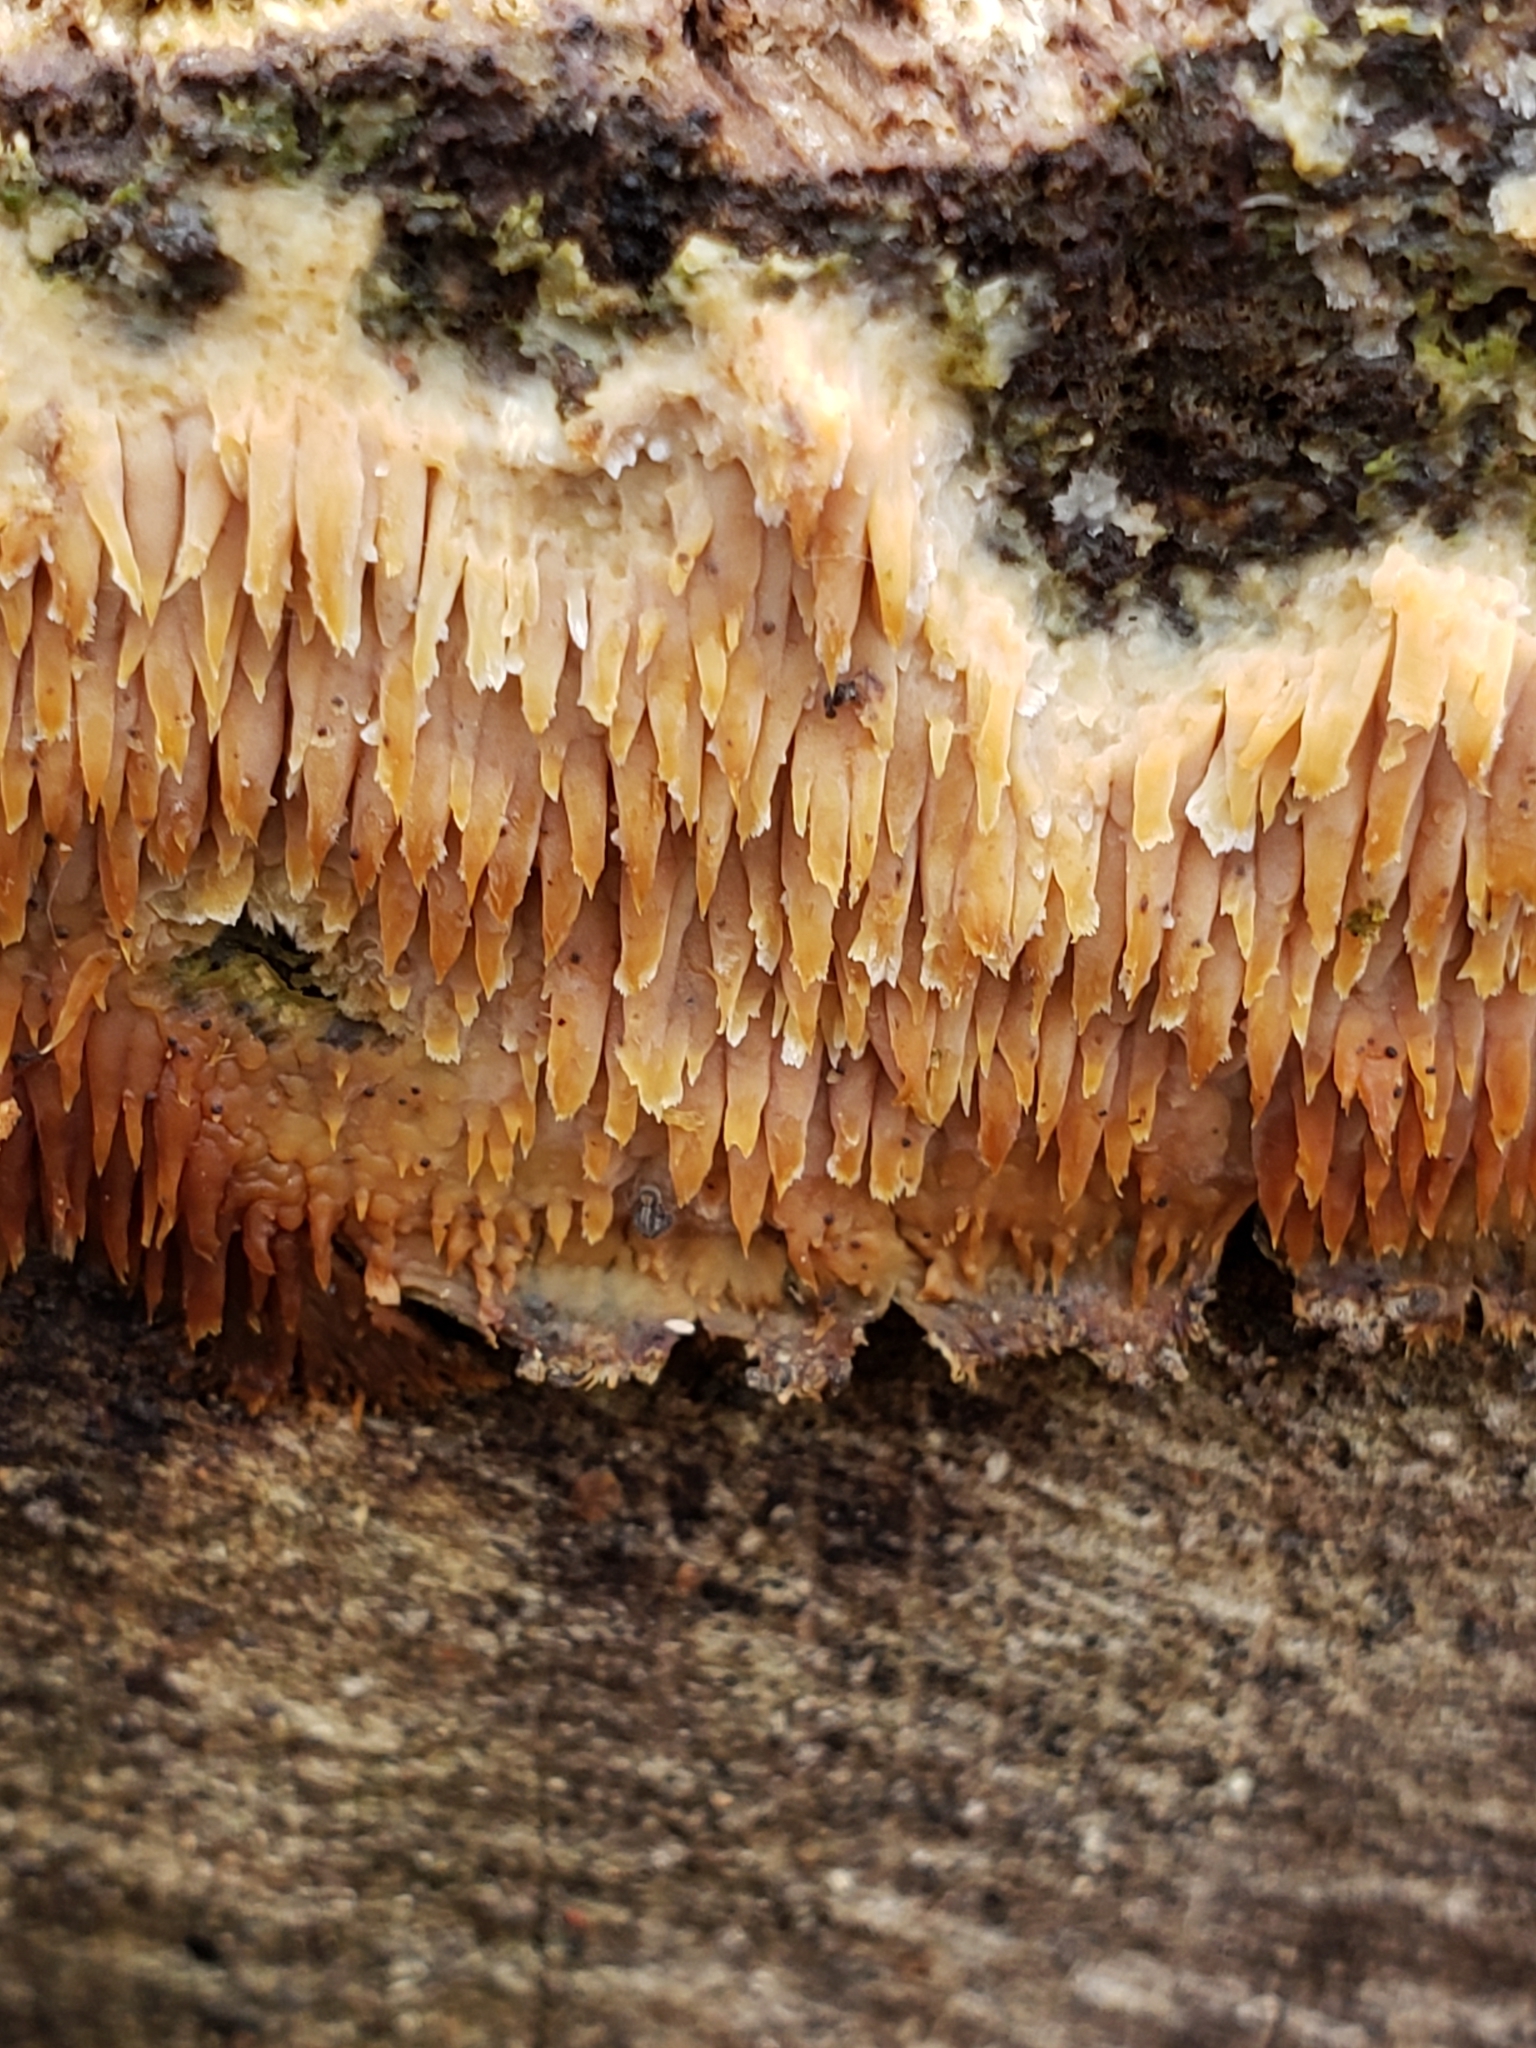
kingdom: Fungi
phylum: Basidiomycota
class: Agaricomycetes
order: Agaricales
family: Radulomycetaceae
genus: Radulomyces
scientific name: Radulomyces copelandii
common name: Asian beauty
